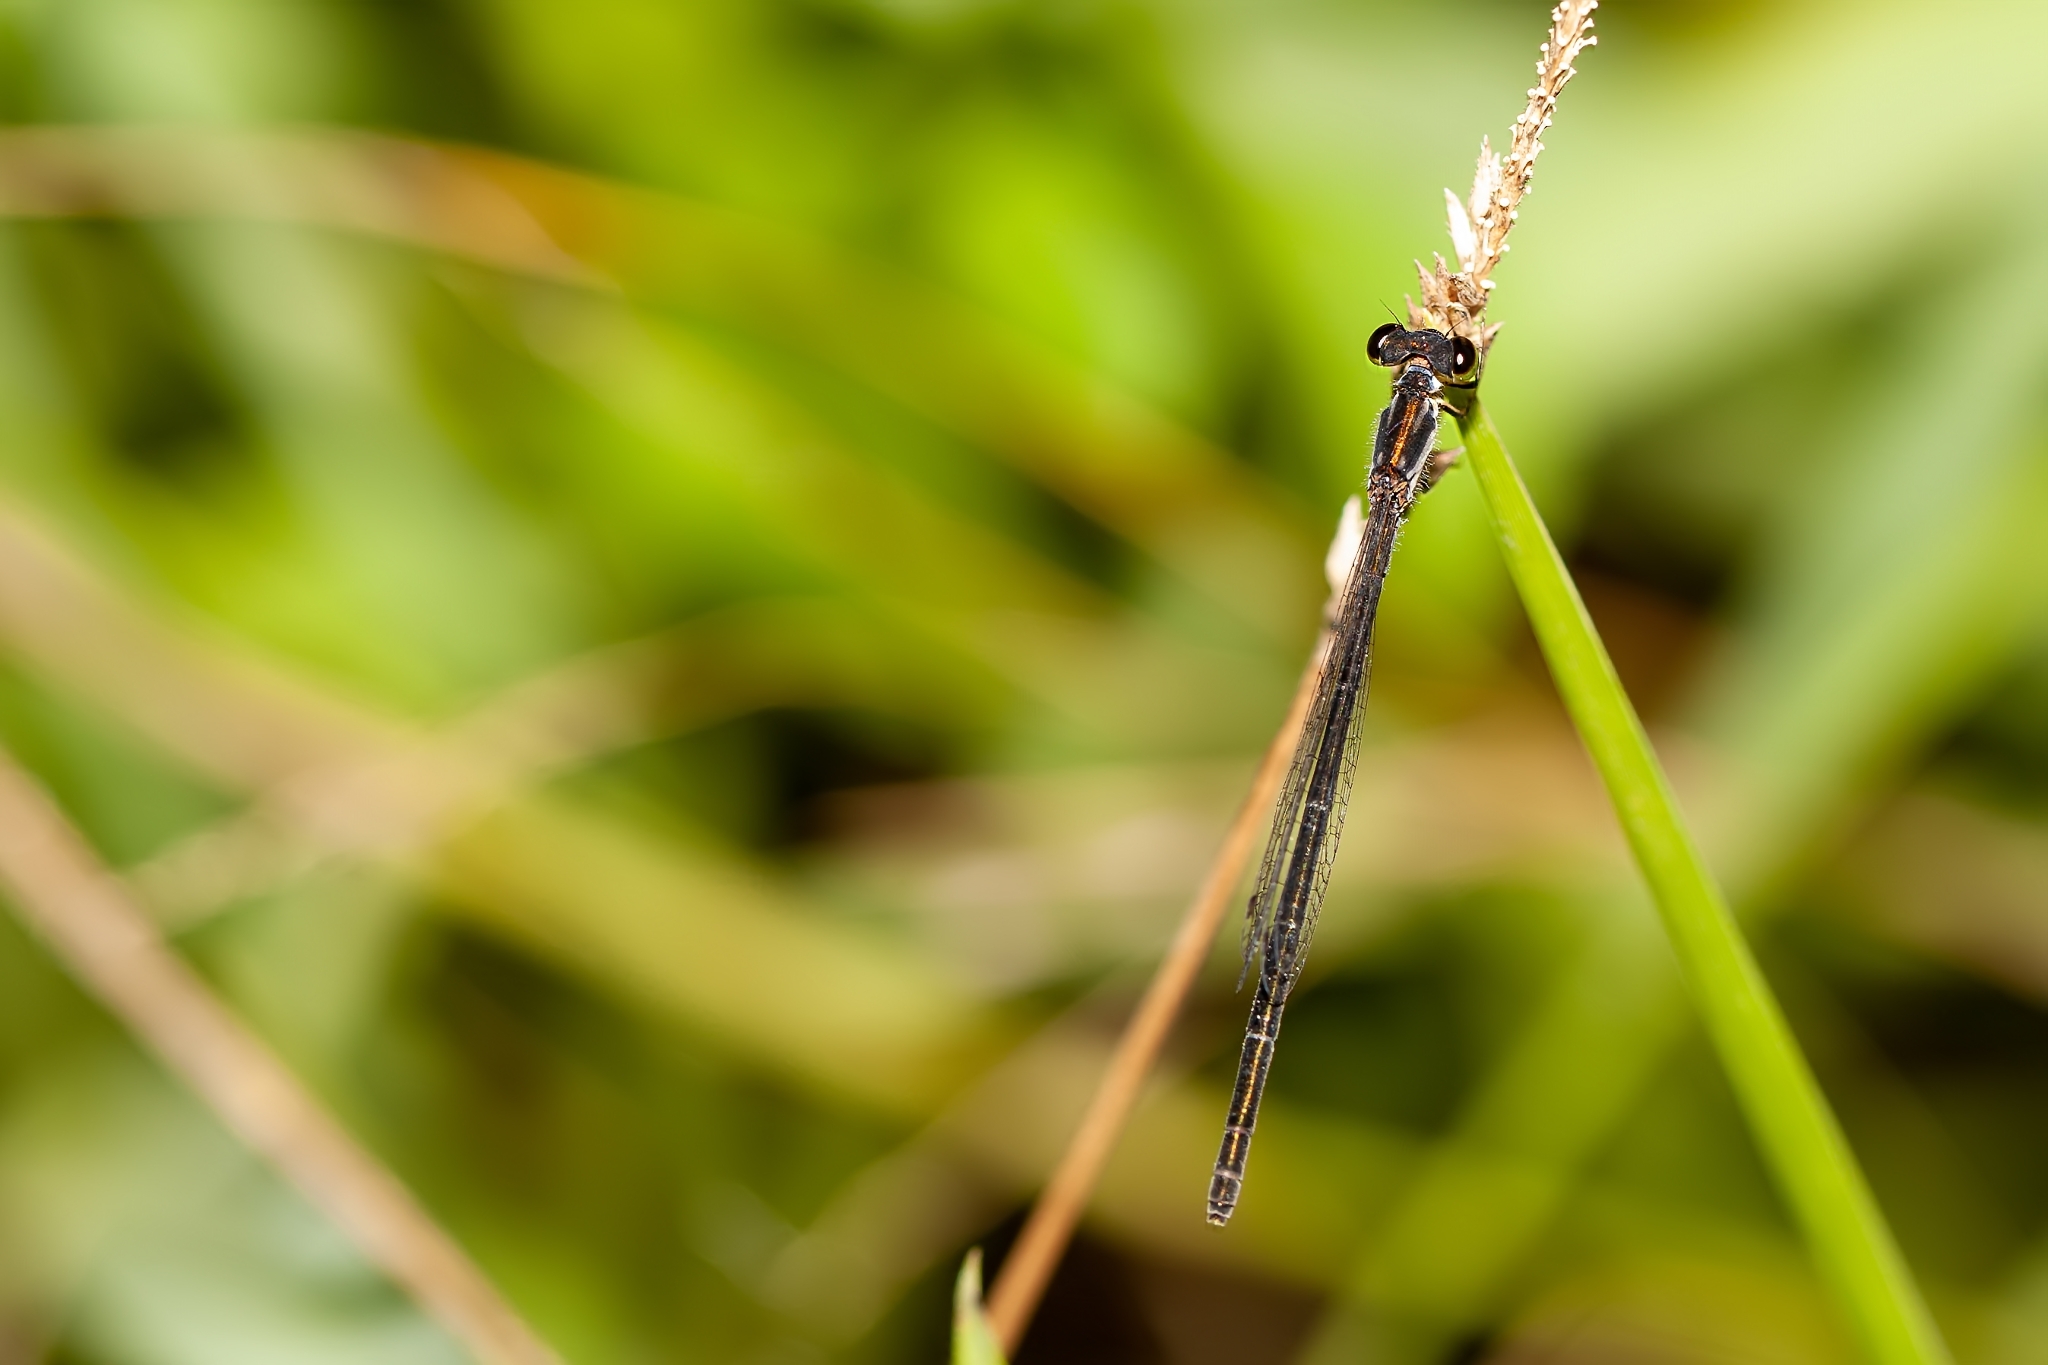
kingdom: Animalia
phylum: Arthropoda
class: Insecta
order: Odonata
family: Coenagrionidae
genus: Ischnura
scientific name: Ischnura posita
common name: Fragile forktail
